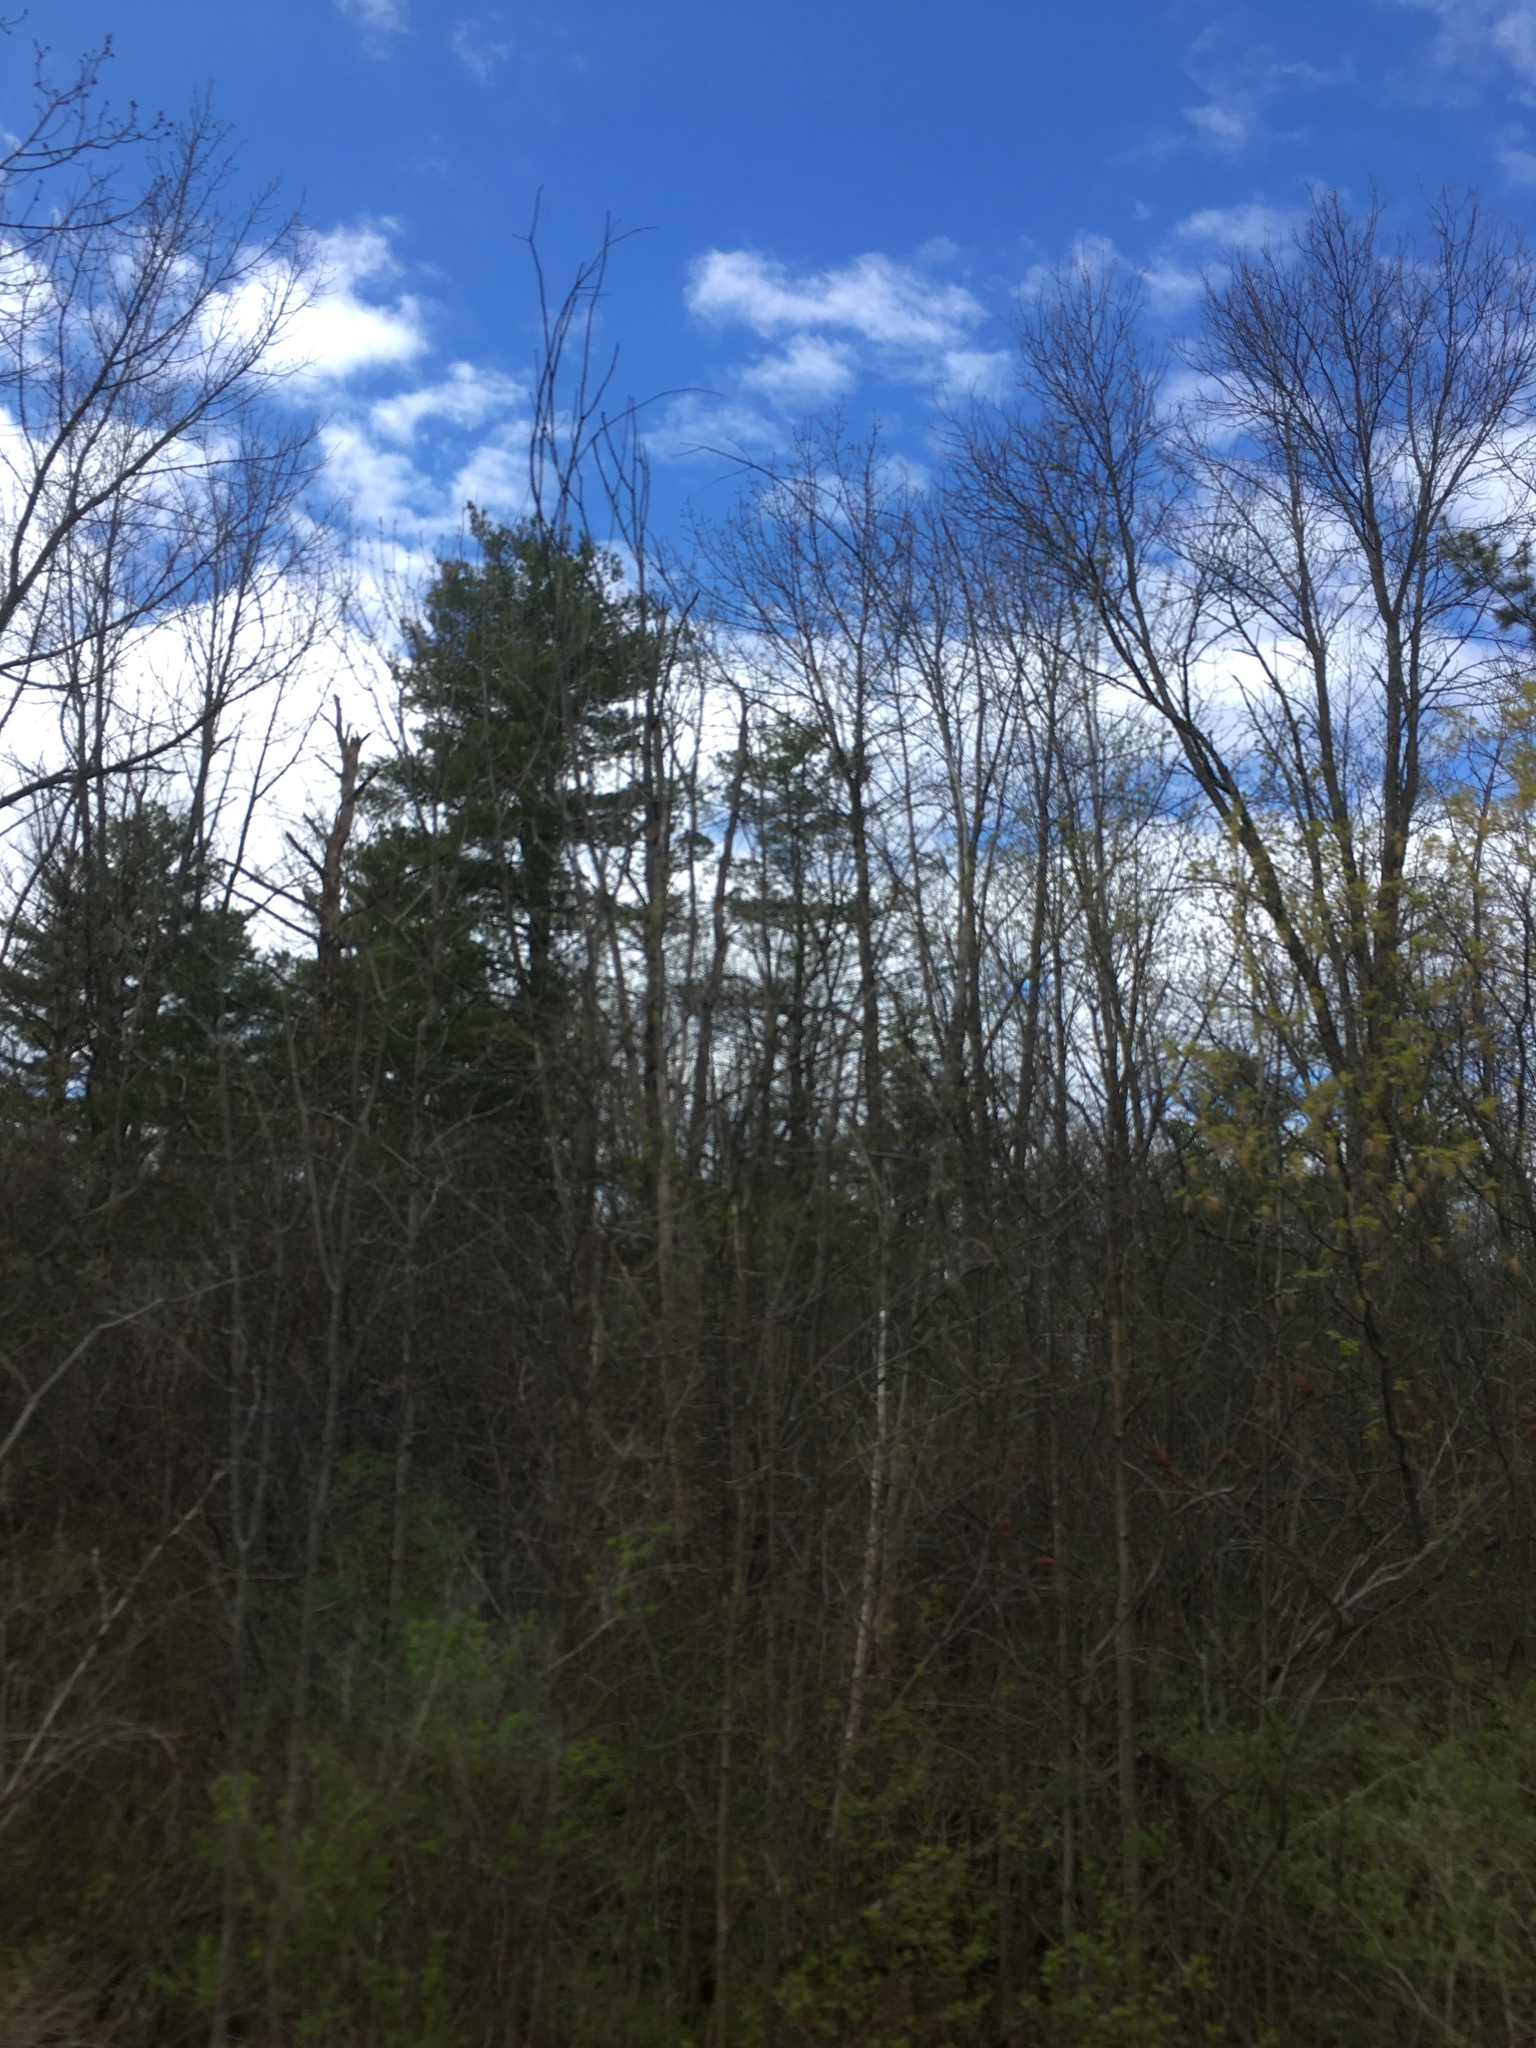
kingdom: Plantae
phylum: Tracheophyta
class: Pinopsida
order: Pinales
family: Pinaceae
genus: Pinus
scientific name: Pinus strobus
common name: Weymouth pine
